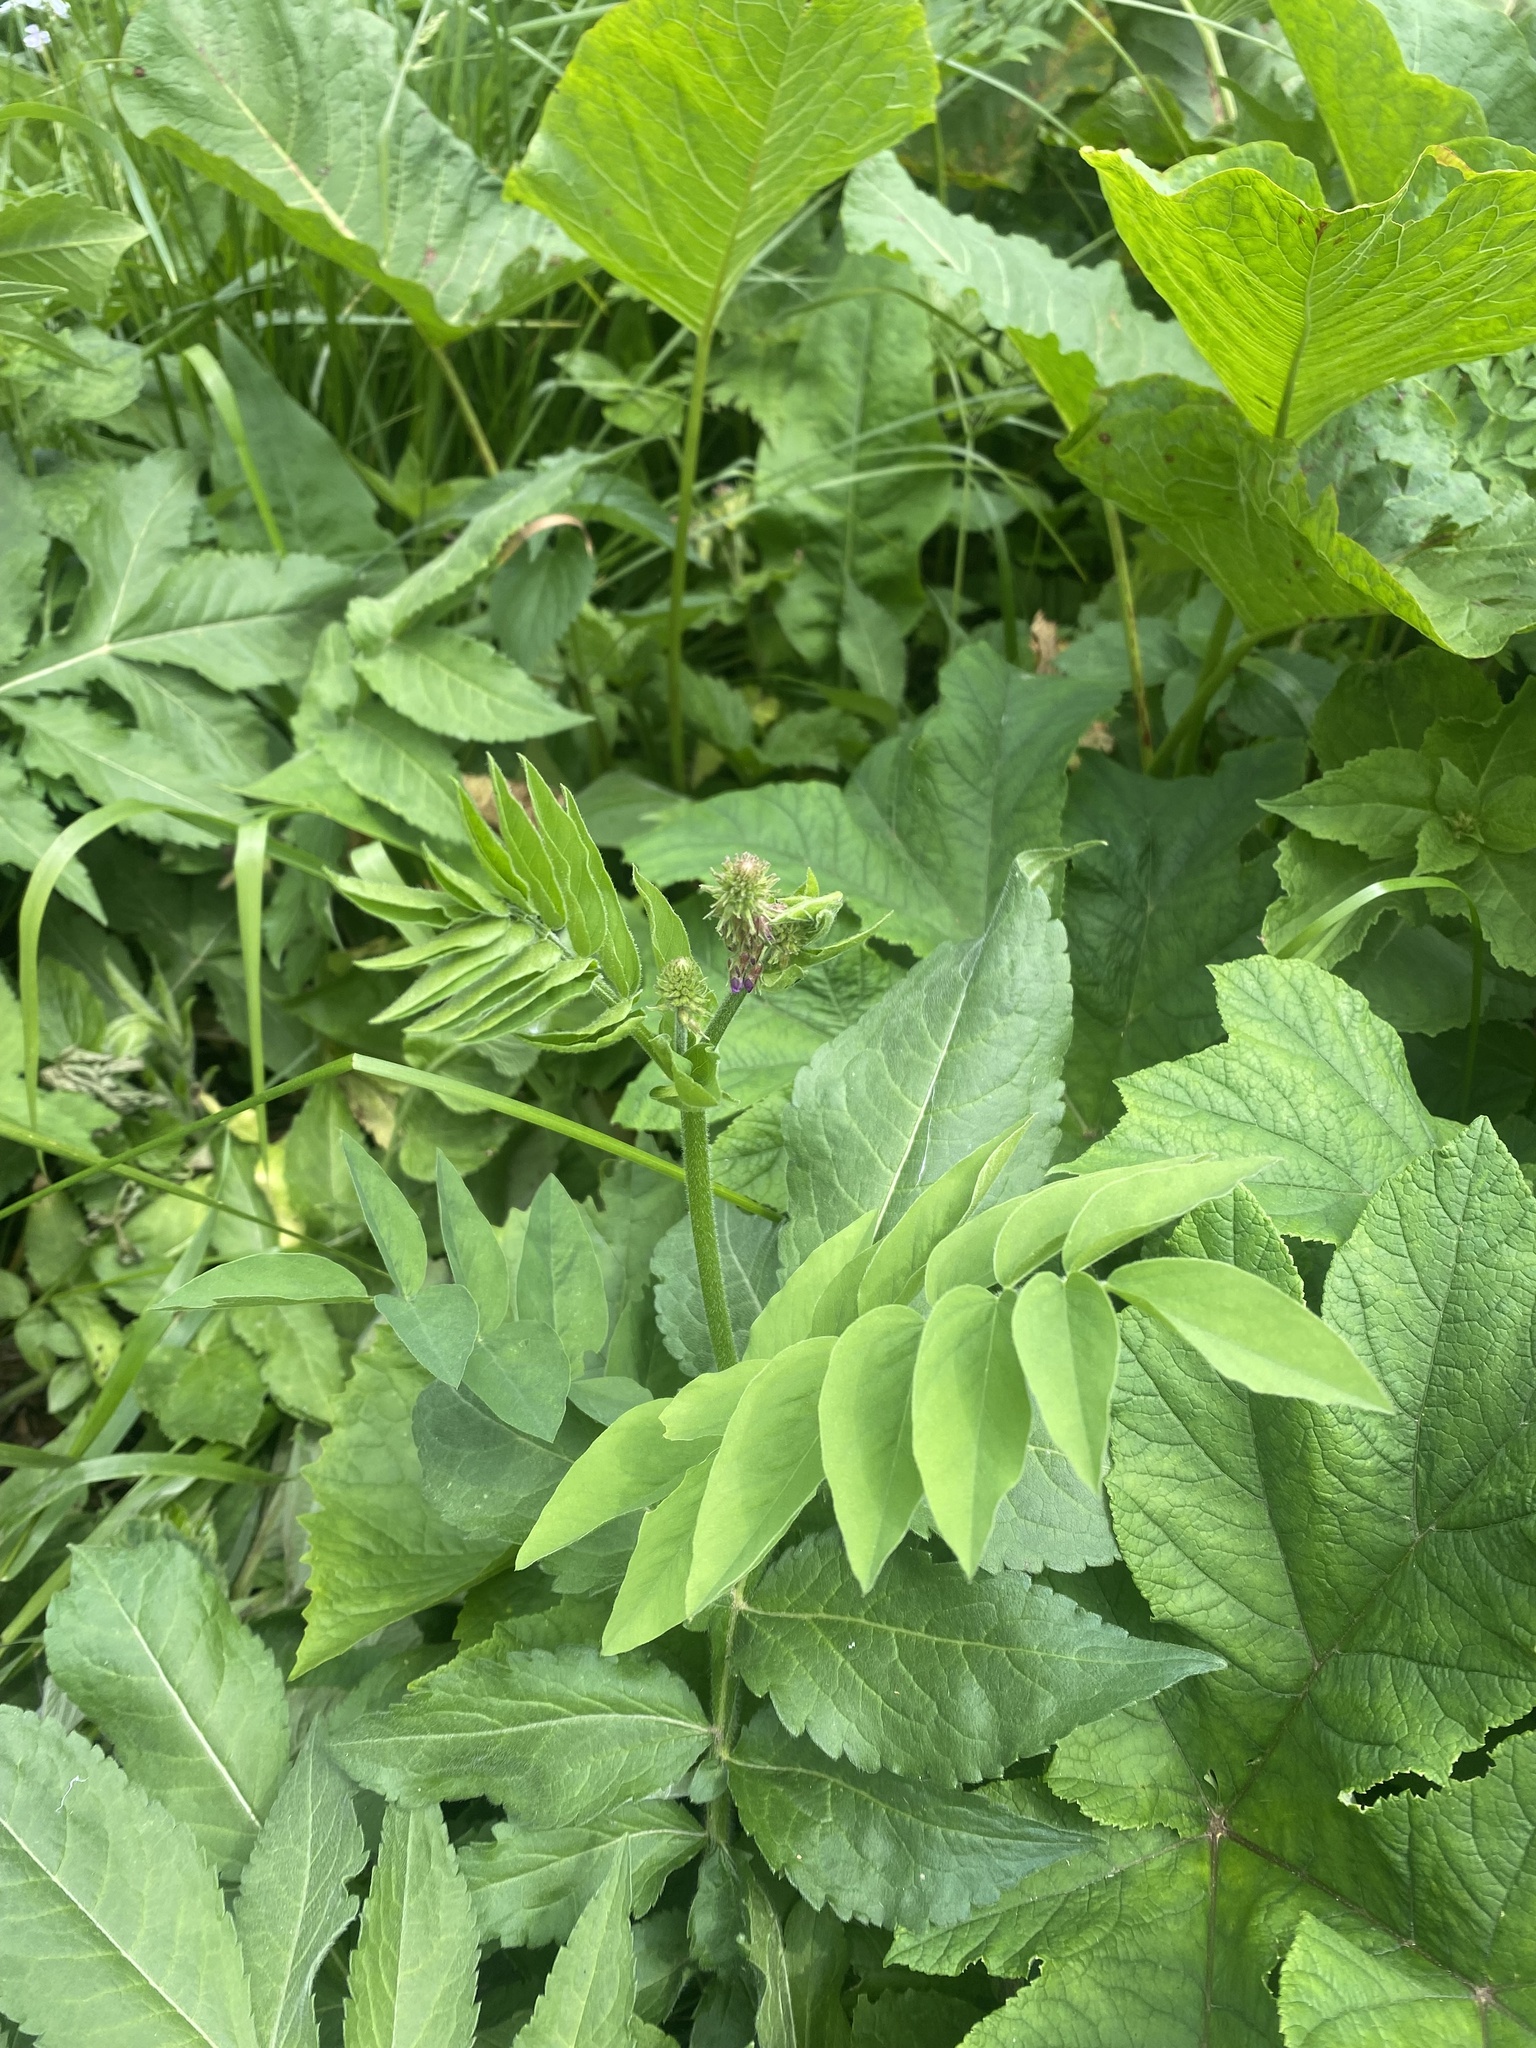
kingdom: Plantae
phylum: Tracheophyta
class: Magnoliopsida
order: Fabales
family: Fabaceae
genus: Galega
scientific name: Galega orientalis
